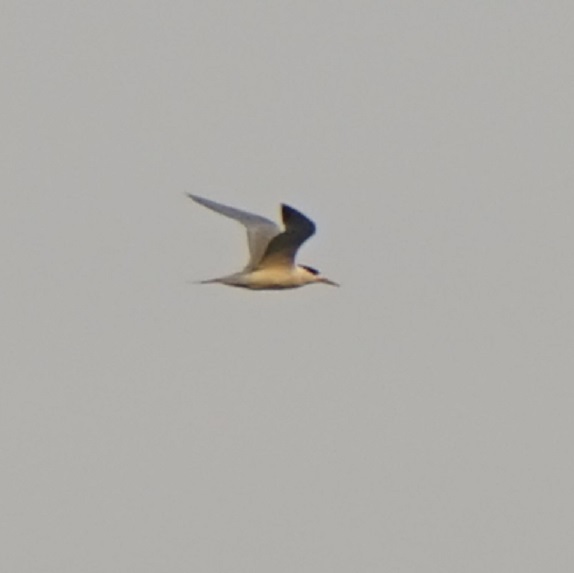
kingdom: Animalia
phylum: Chordata
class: Aves
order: Charadriiformes
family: Laridae
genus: Thalasseus
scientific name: Thalasseus bergii
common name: Greater crested tern
